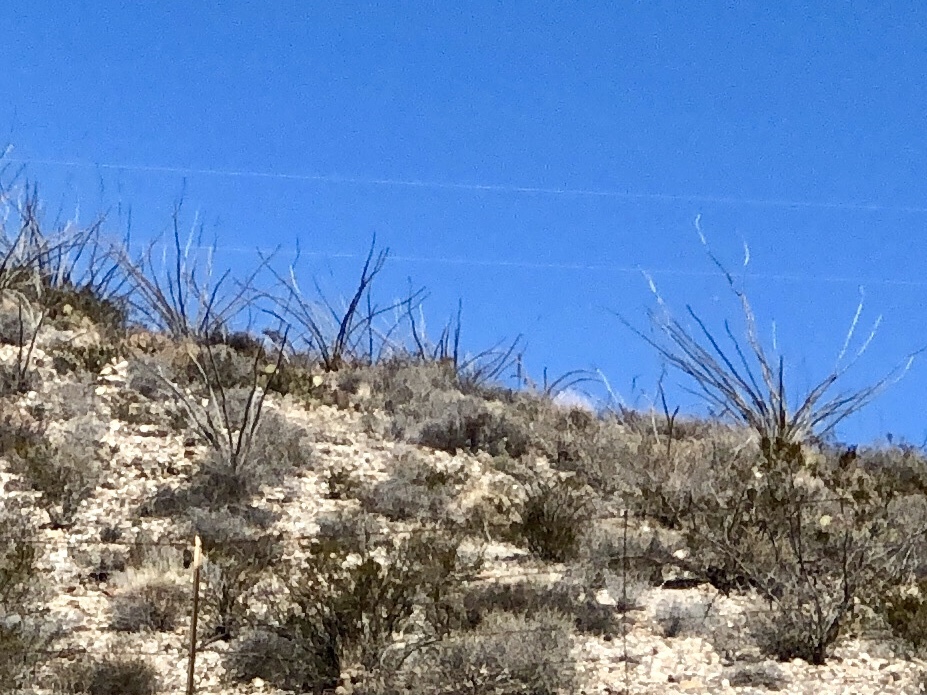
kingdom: Plantae
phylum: Tracheophyta
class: Magnoliopsida
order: Ericales
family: Fouquieriaceae
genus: Fouquieria
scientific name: Fouquieria splendens
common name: Vine-cactus
